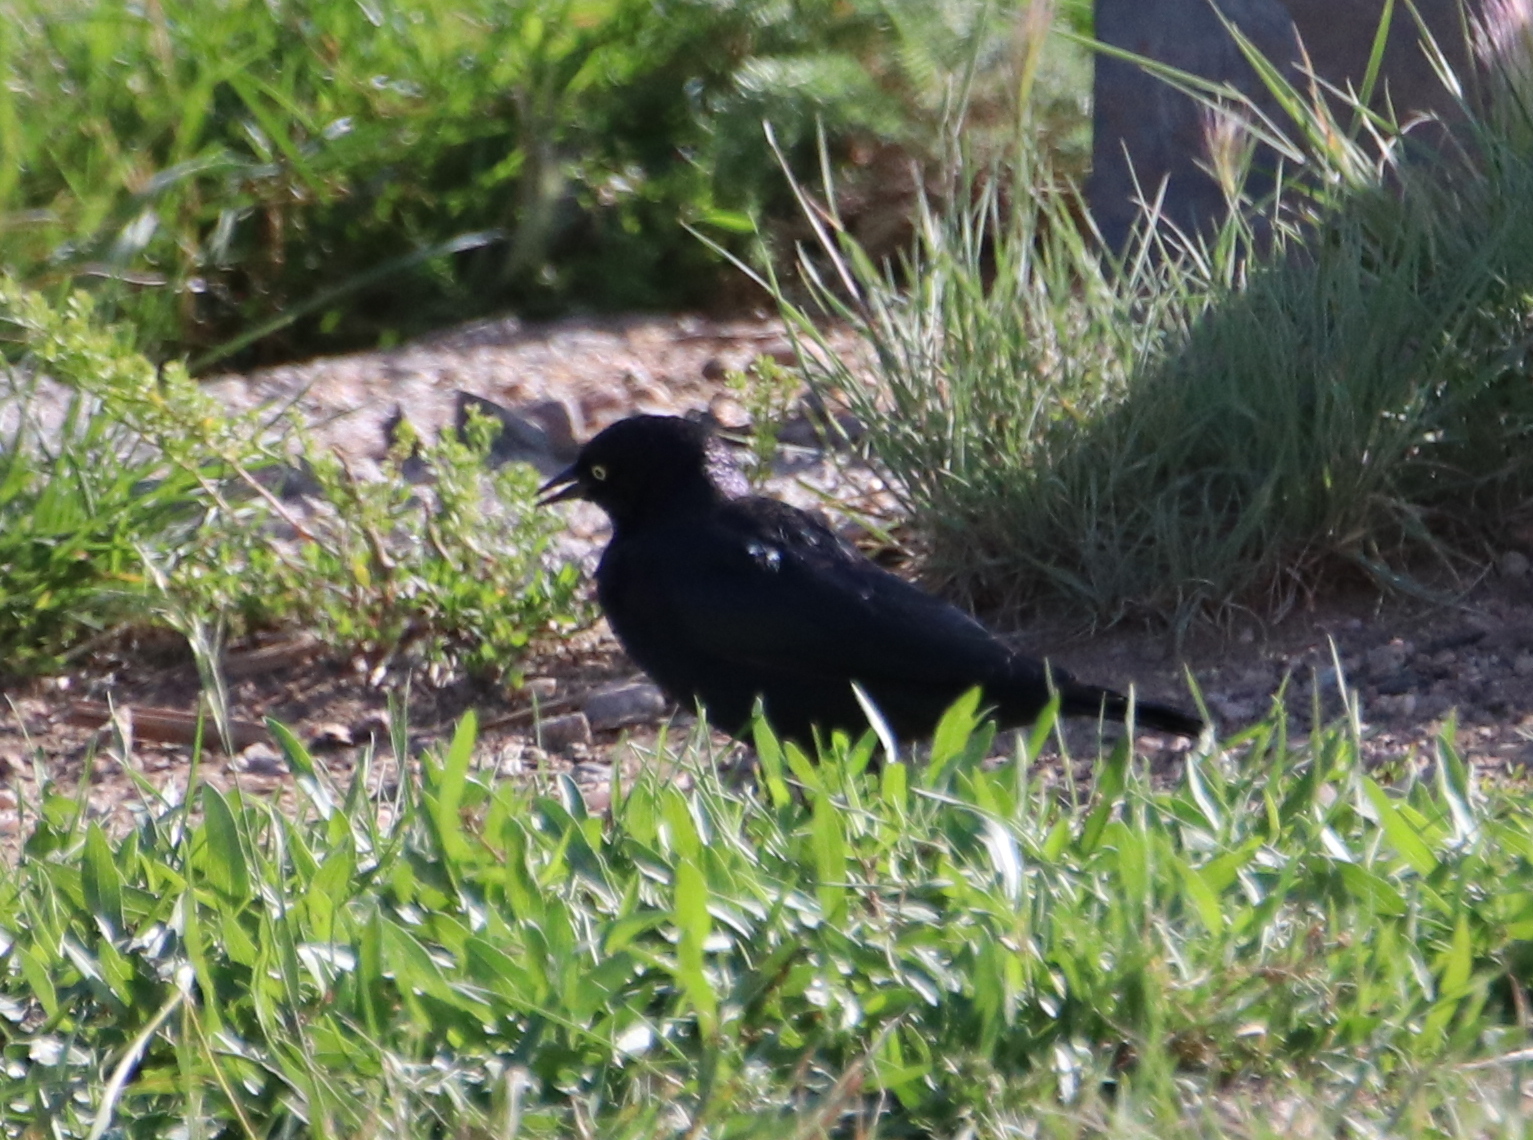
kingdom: Animalia
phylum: Chordata
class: Aves
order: Passeriformes
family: Icteridae
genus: Euphagus
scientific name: Euphagus cyanocephalus
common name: Brewer's blackbird
